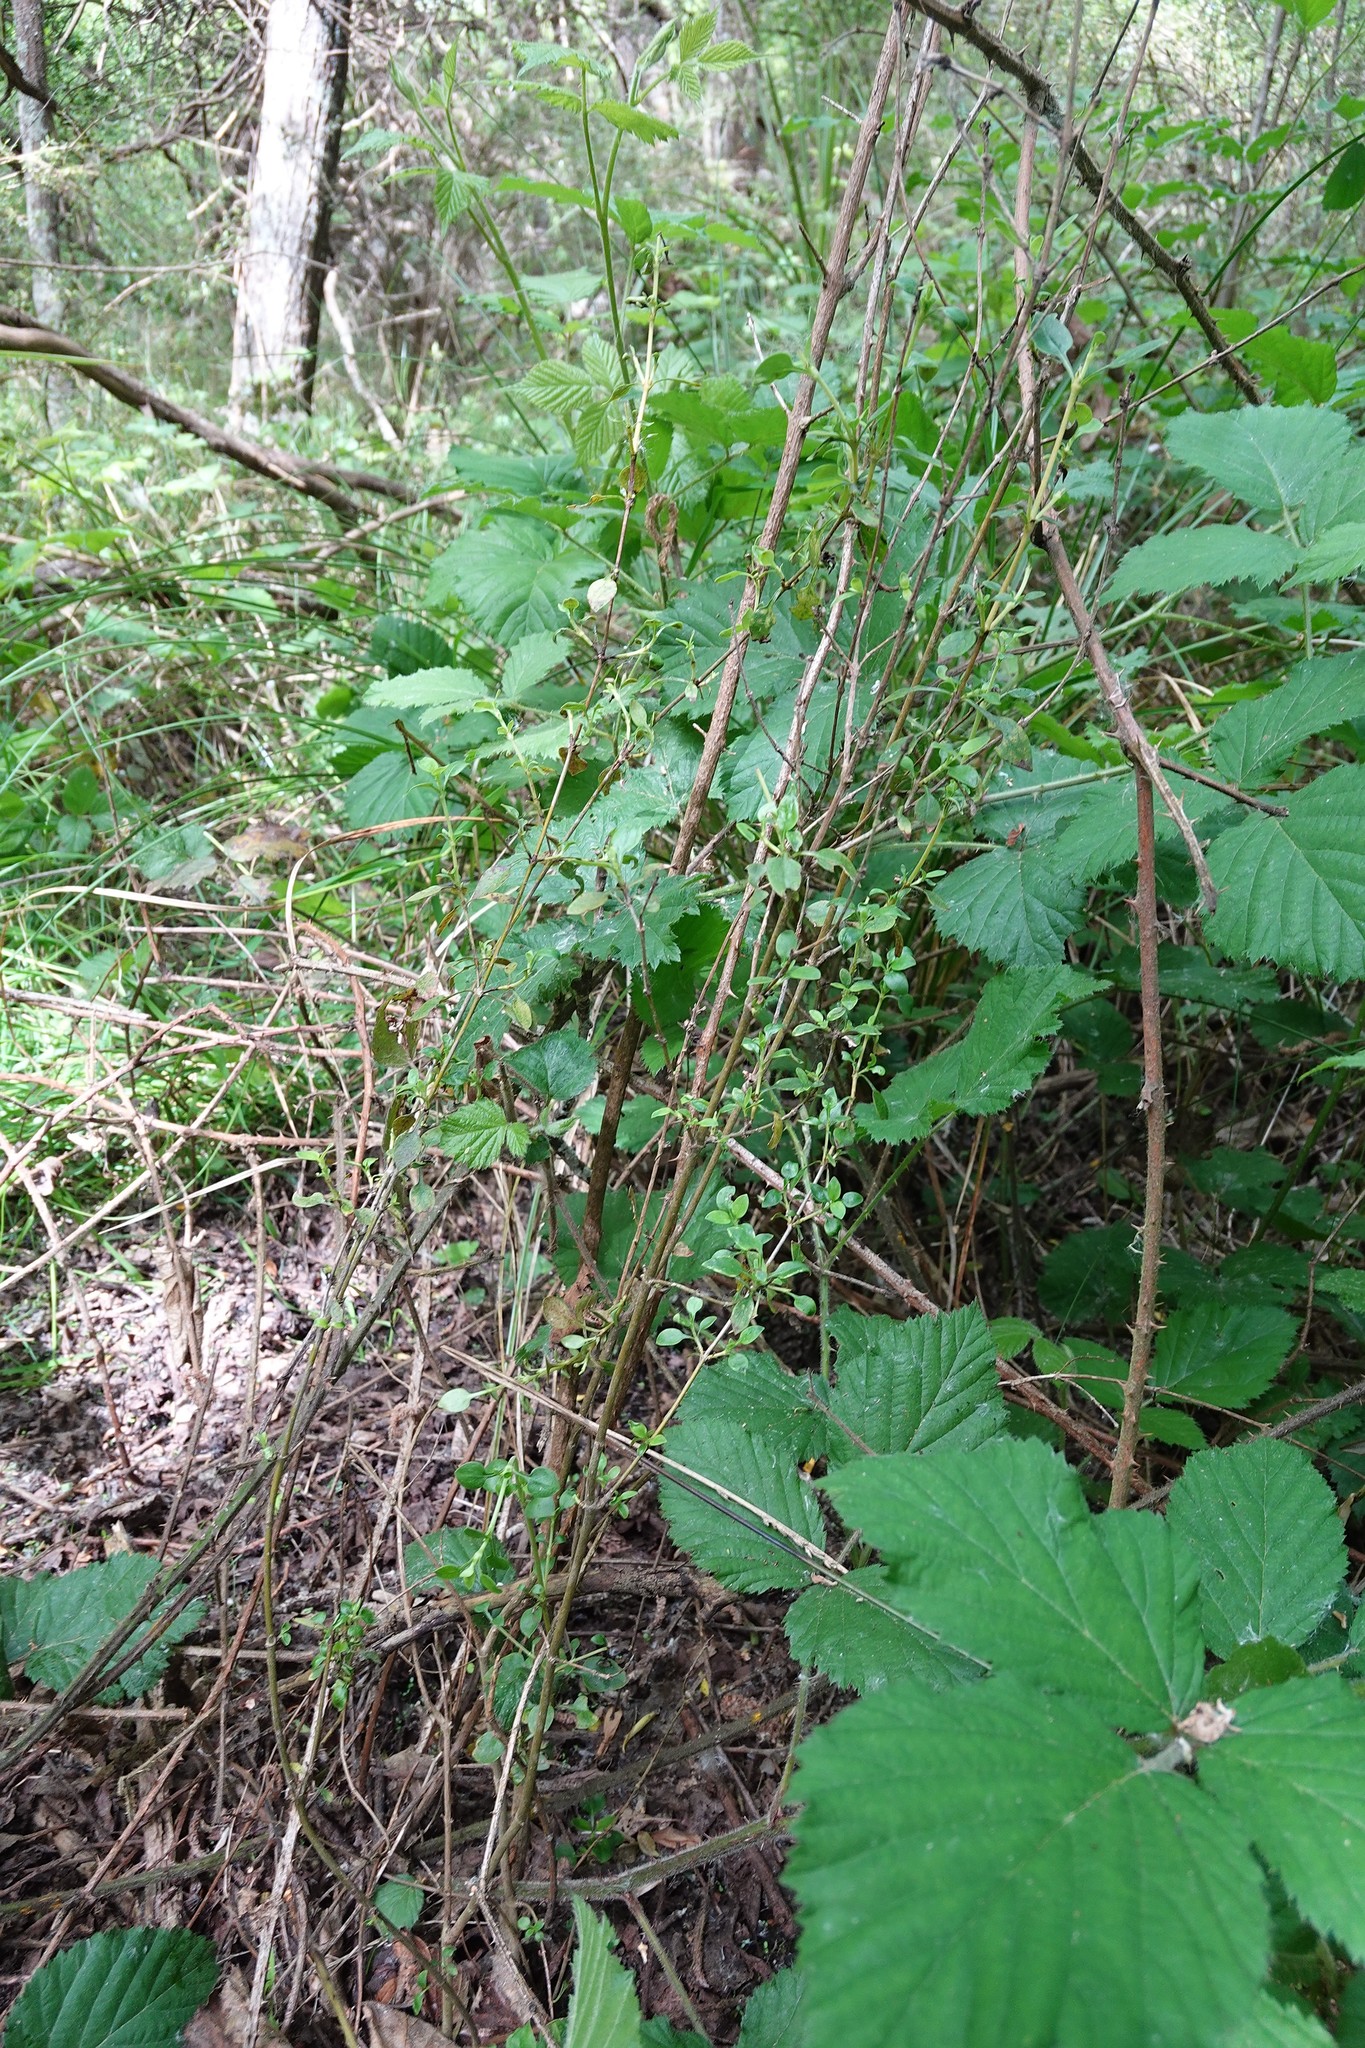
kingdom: Plantae
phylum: Tracheophyta
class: Magnoliopsida
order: Gentianales
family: Rubiaceae
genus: Coprosma
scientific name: Coprosma cunninghamii
